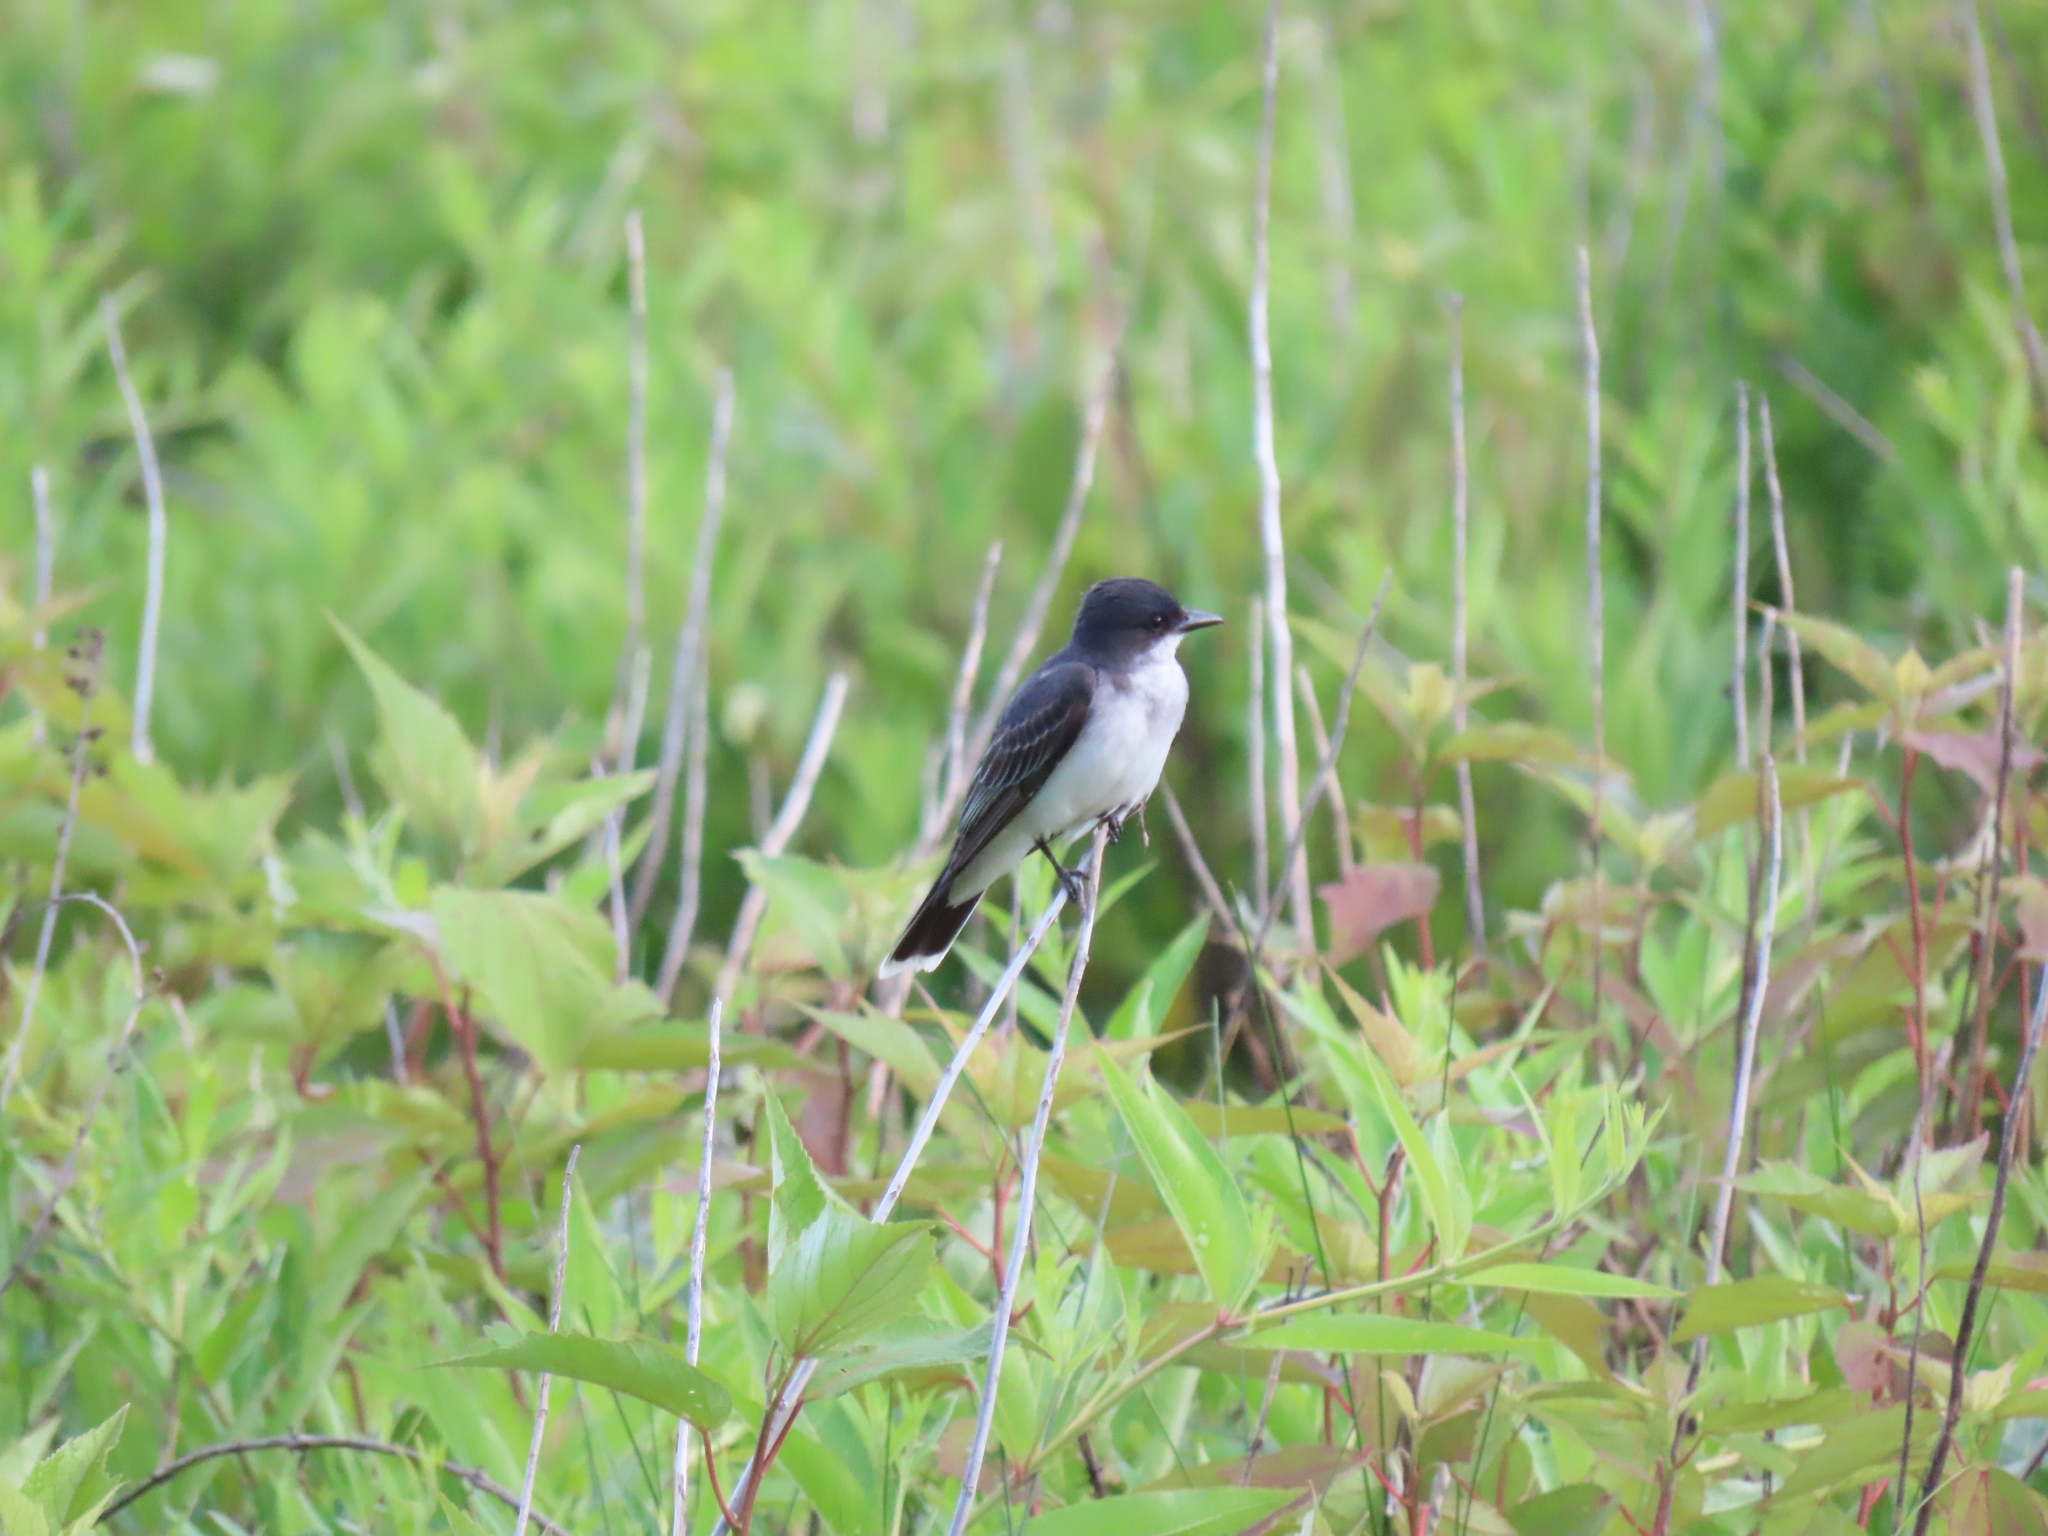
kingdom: Animalia
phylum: Chordata
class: Aves
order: Passeriformes
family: Tyrannidae
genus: Tyrannus
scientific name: Tyrannus tyrannus
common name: Eastern kingbird
